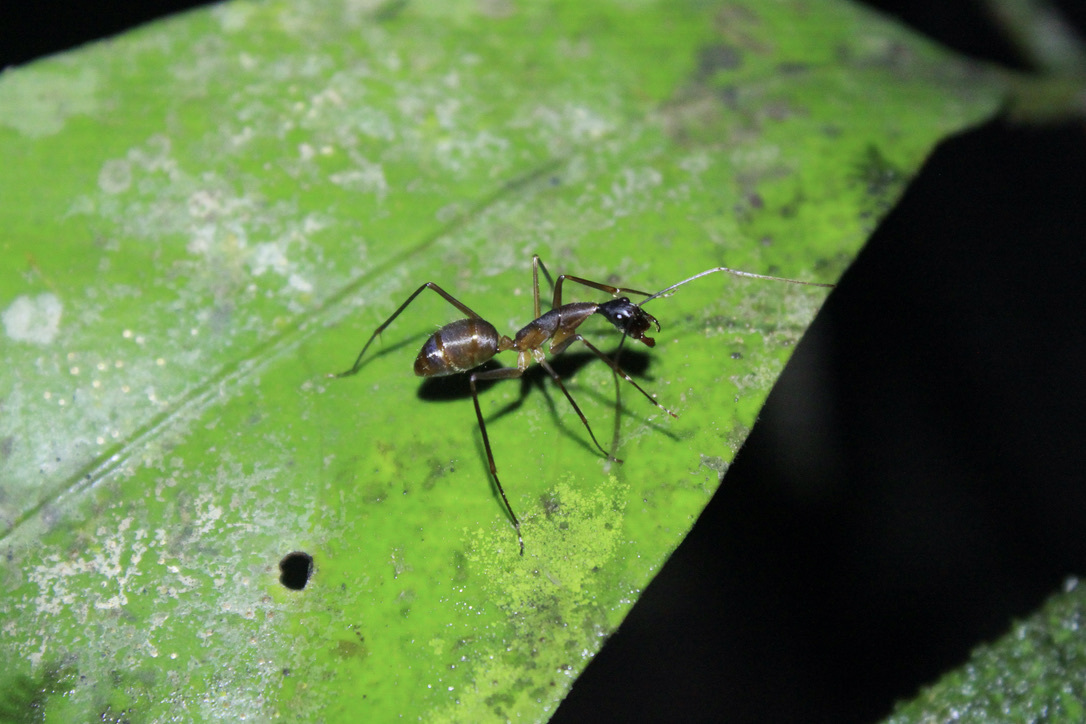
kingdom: Animalia
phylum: Arthropoda
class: Insecta
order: Hymenoptera
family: Formicidae
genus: Camponotus
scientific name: Camponotus ager
